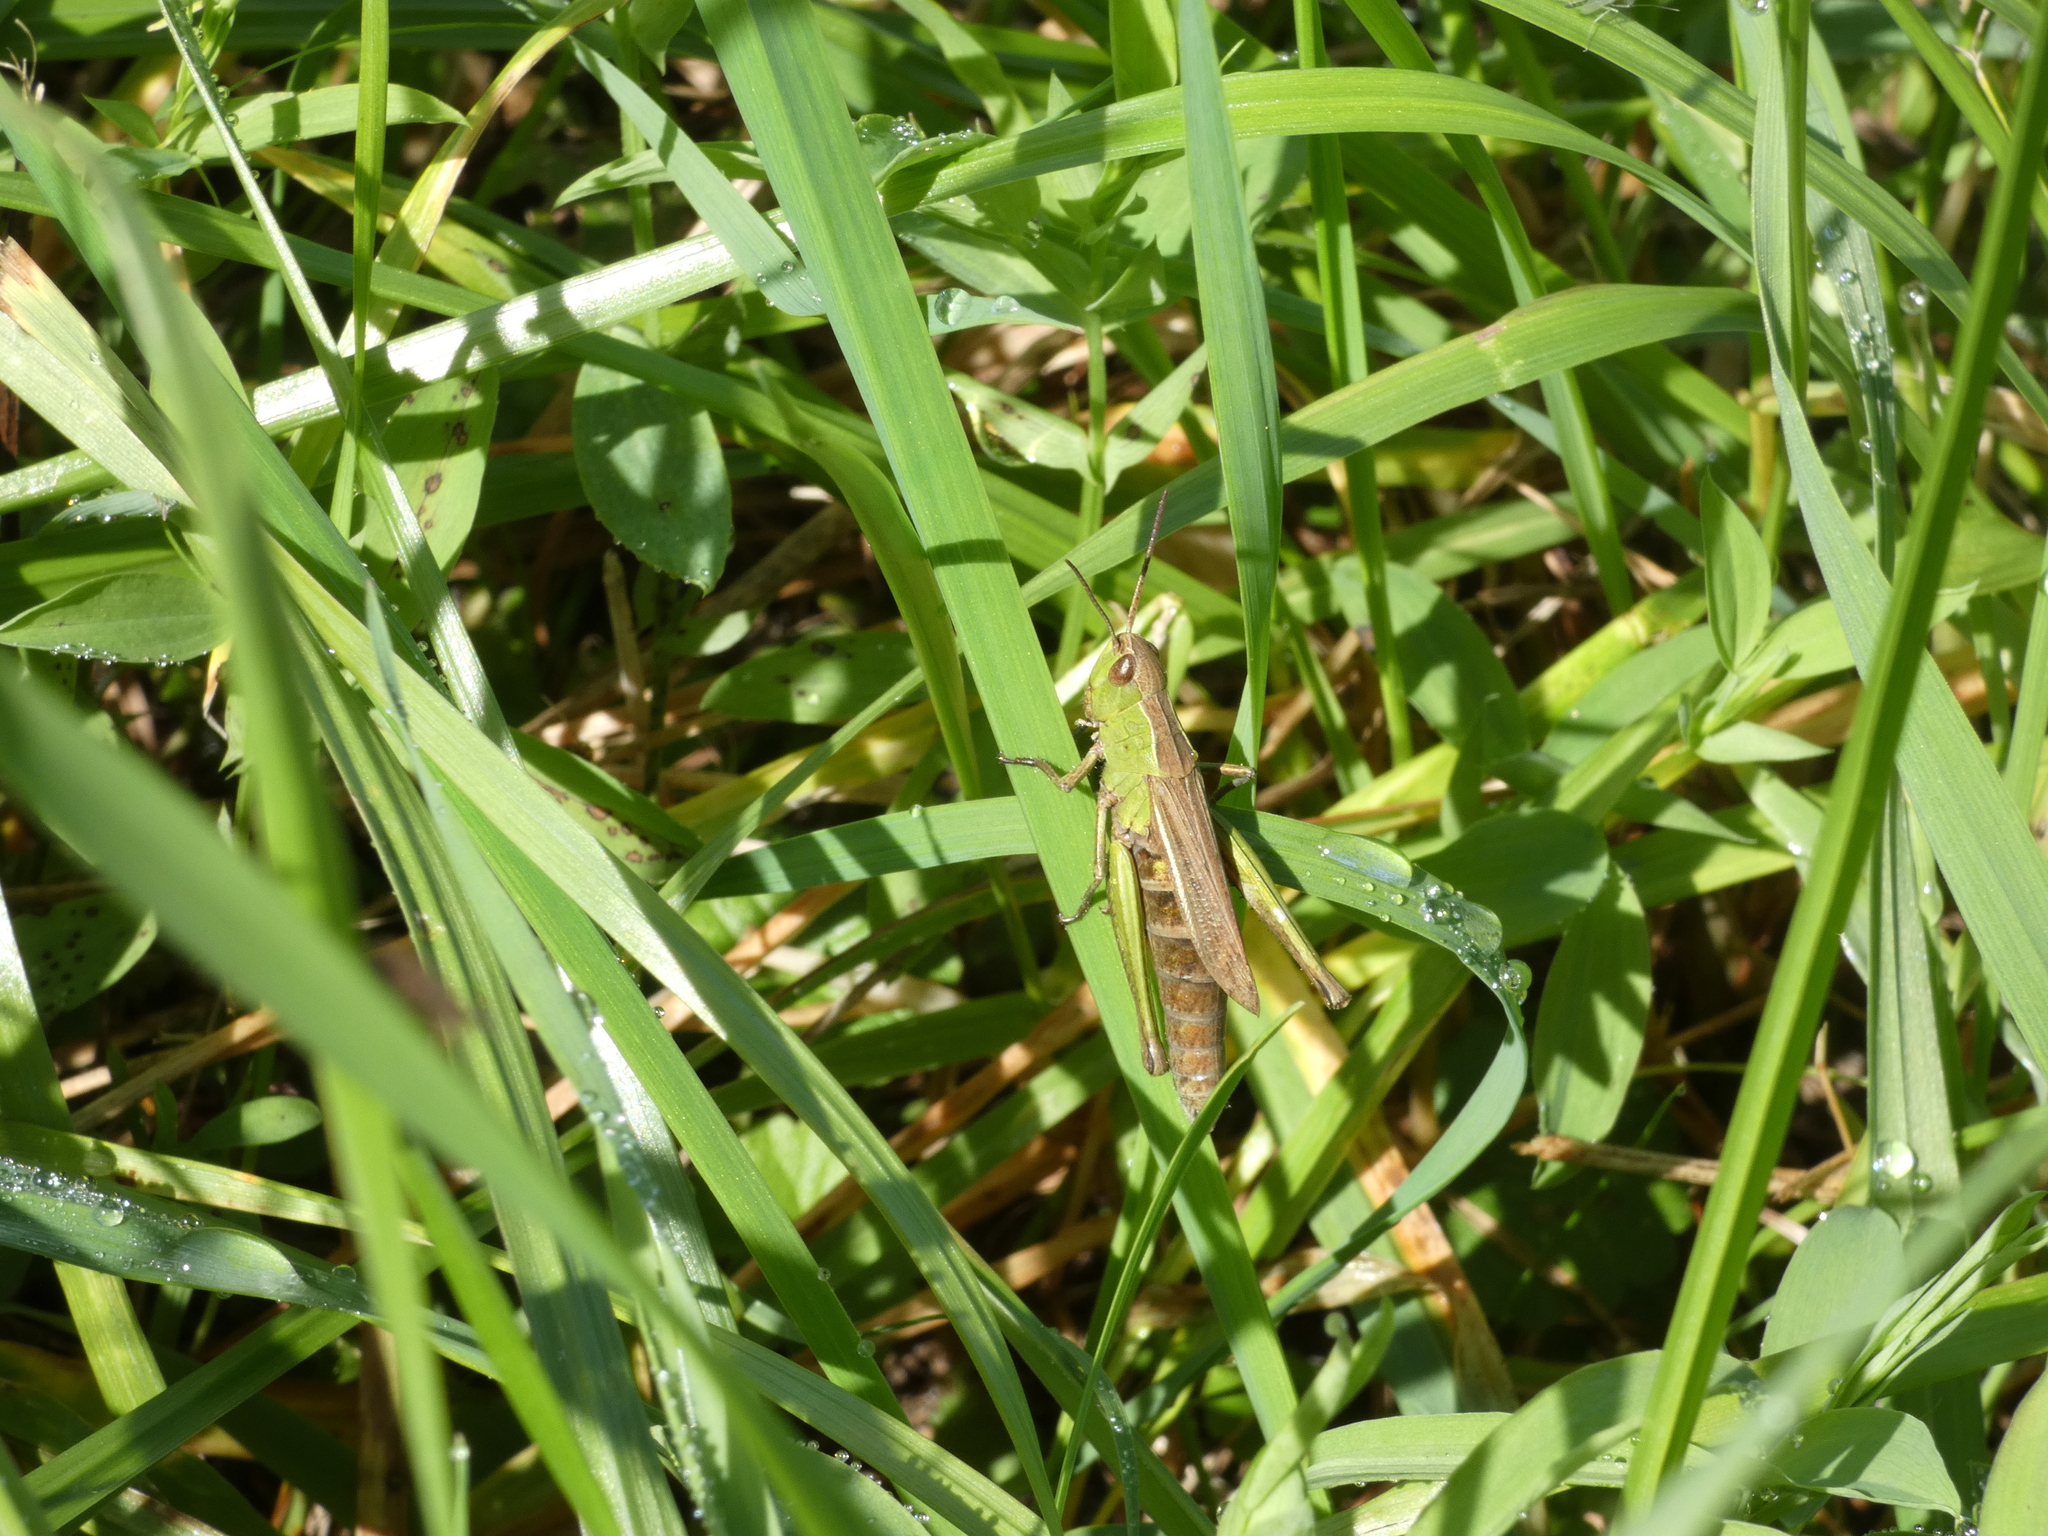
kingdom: Animalia
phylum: Arthropoda
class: Insecta
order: Orthoptera
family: Acrididae
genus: Chorthippus
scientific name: Chorthippus dorsatus
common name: Steppe grasshopper
